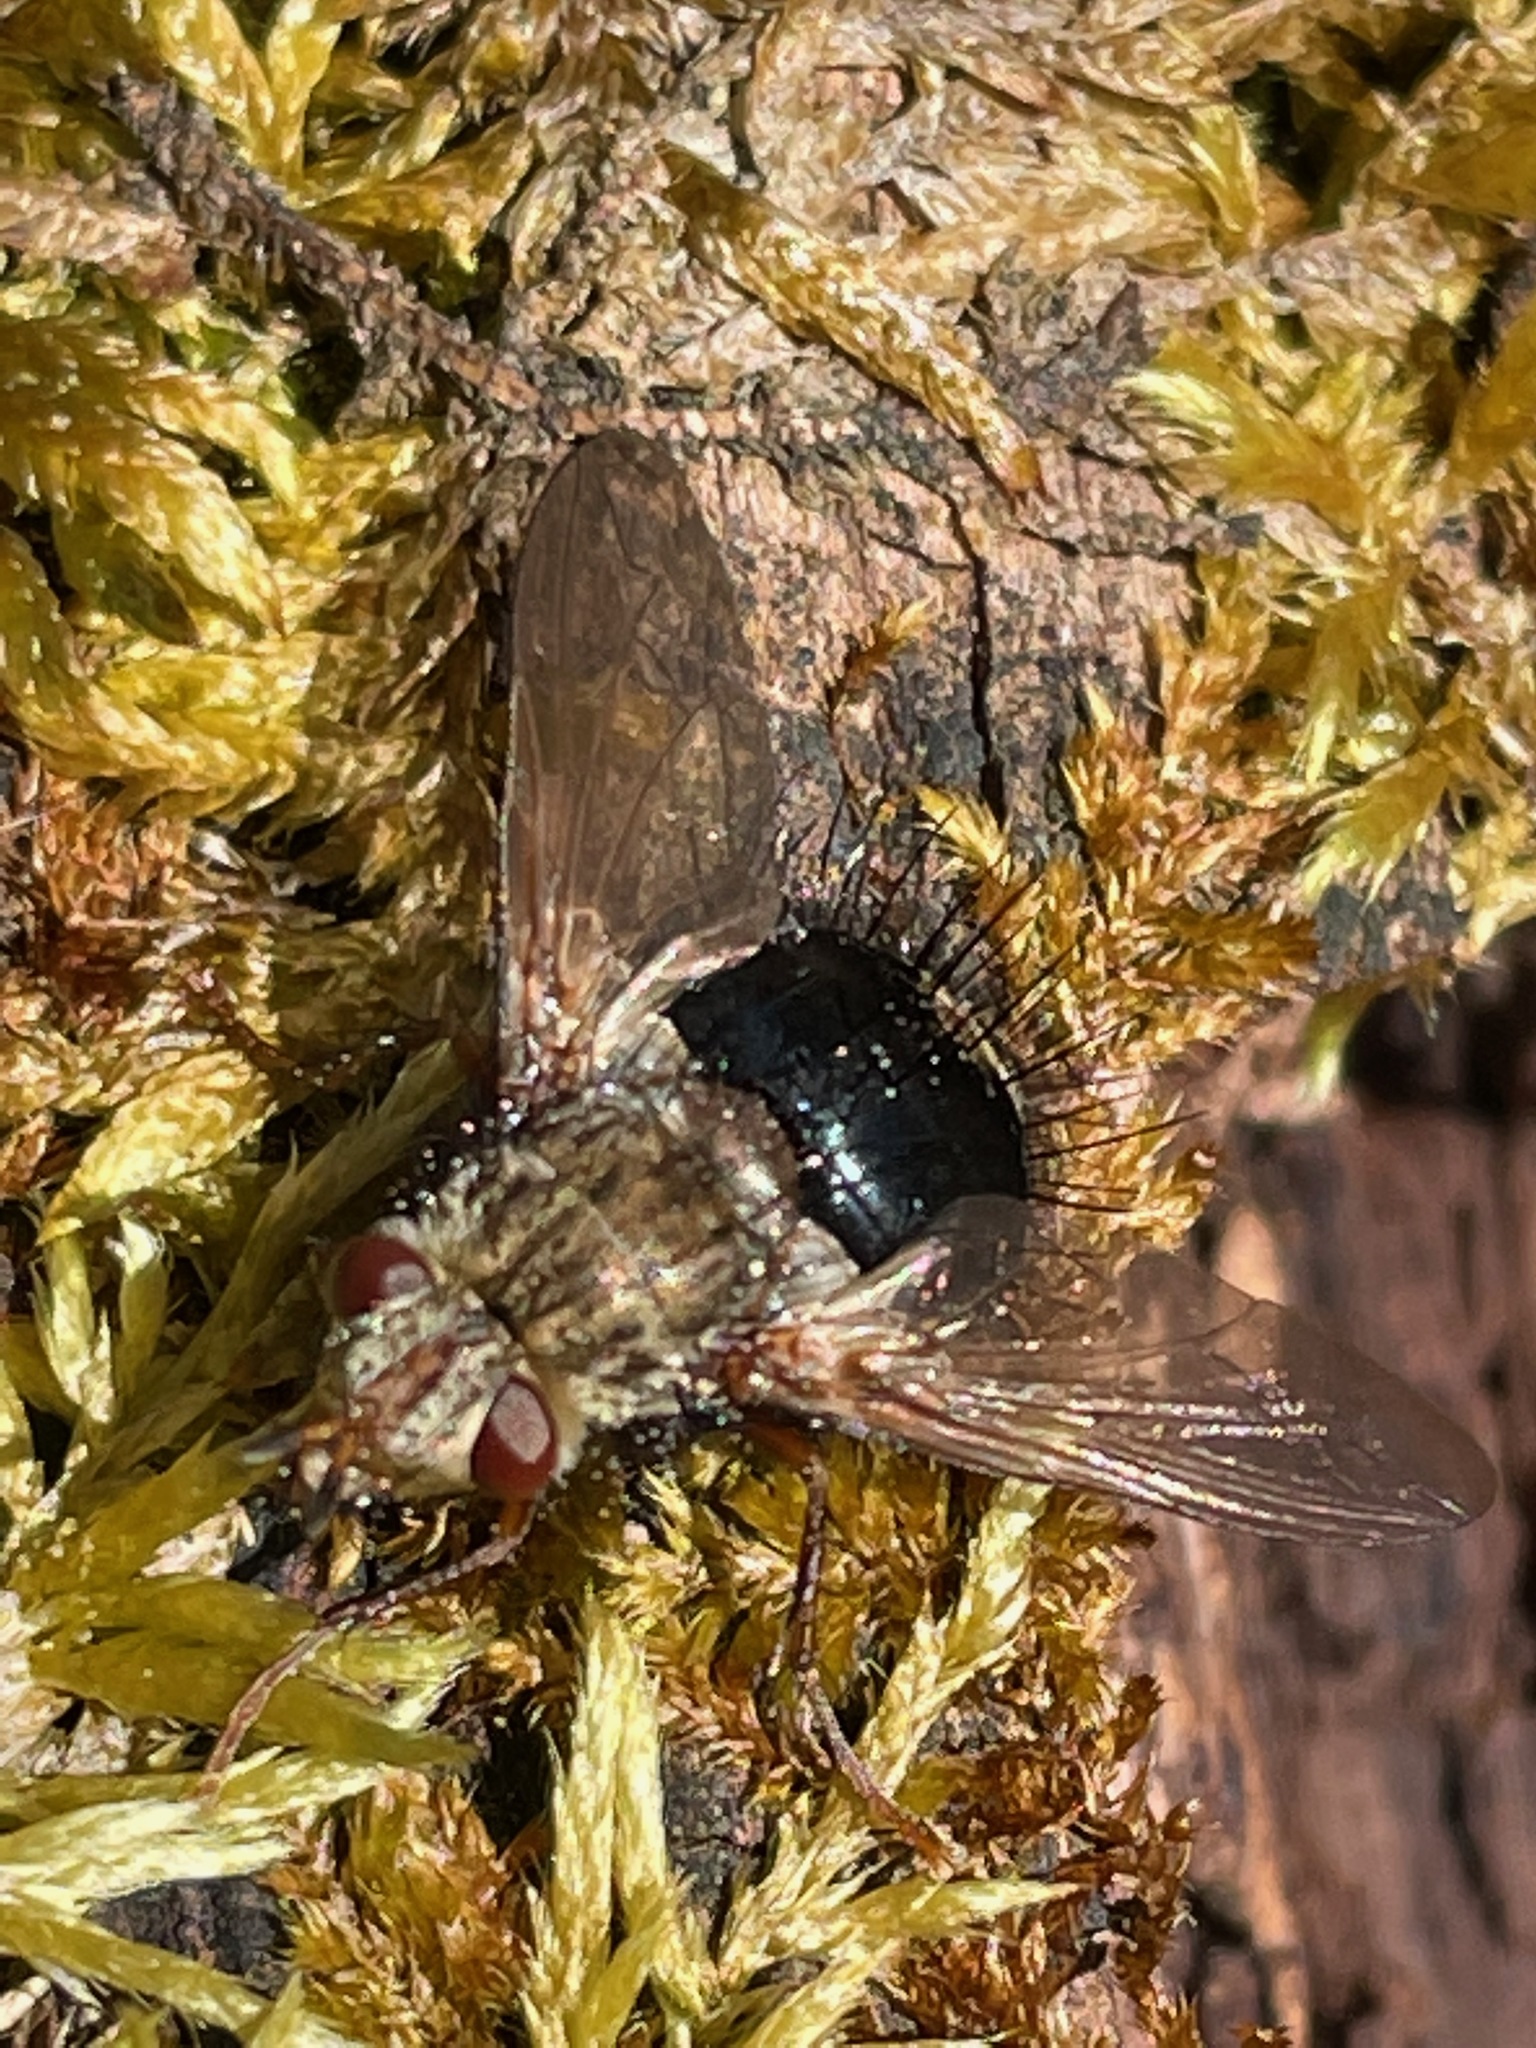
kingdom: Animalia
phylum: Arthropoda
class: Insecta
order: Diptera
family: Tachinidae
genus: Epalpus
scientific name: Epalpus signifer
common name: Early tachinid fly
